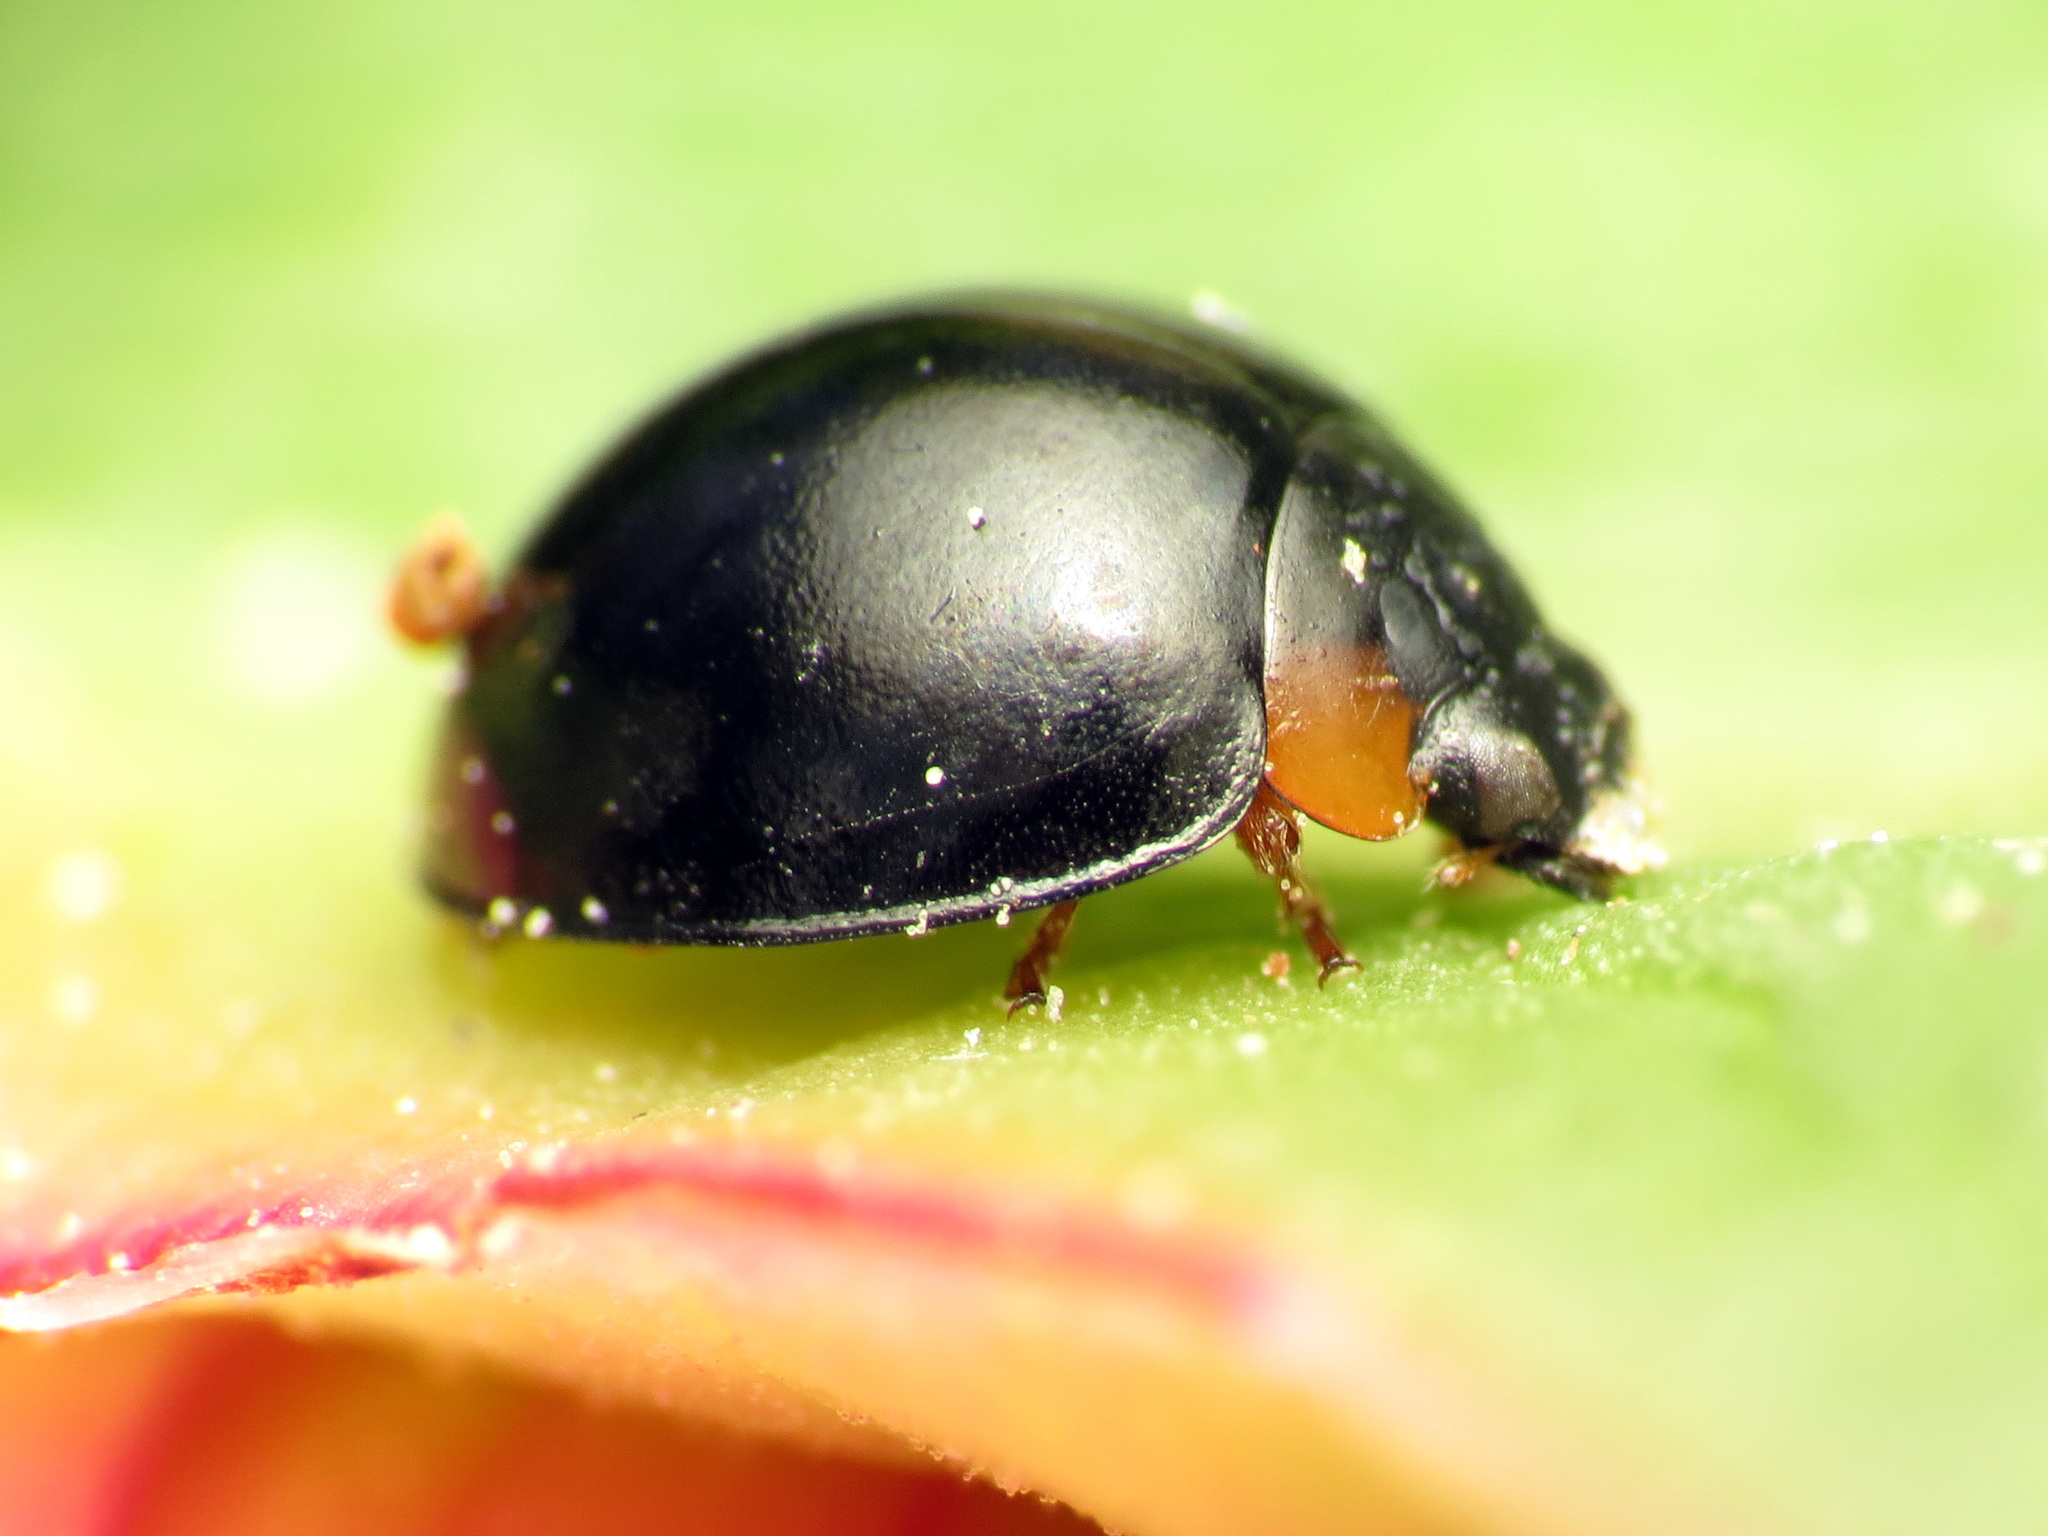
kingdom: Animalia
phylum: Arthropoda
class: Insecta
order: Coleoptera
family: Coccinellidae
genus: Parexochomus
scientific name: Parexochomus nigromaculatus
